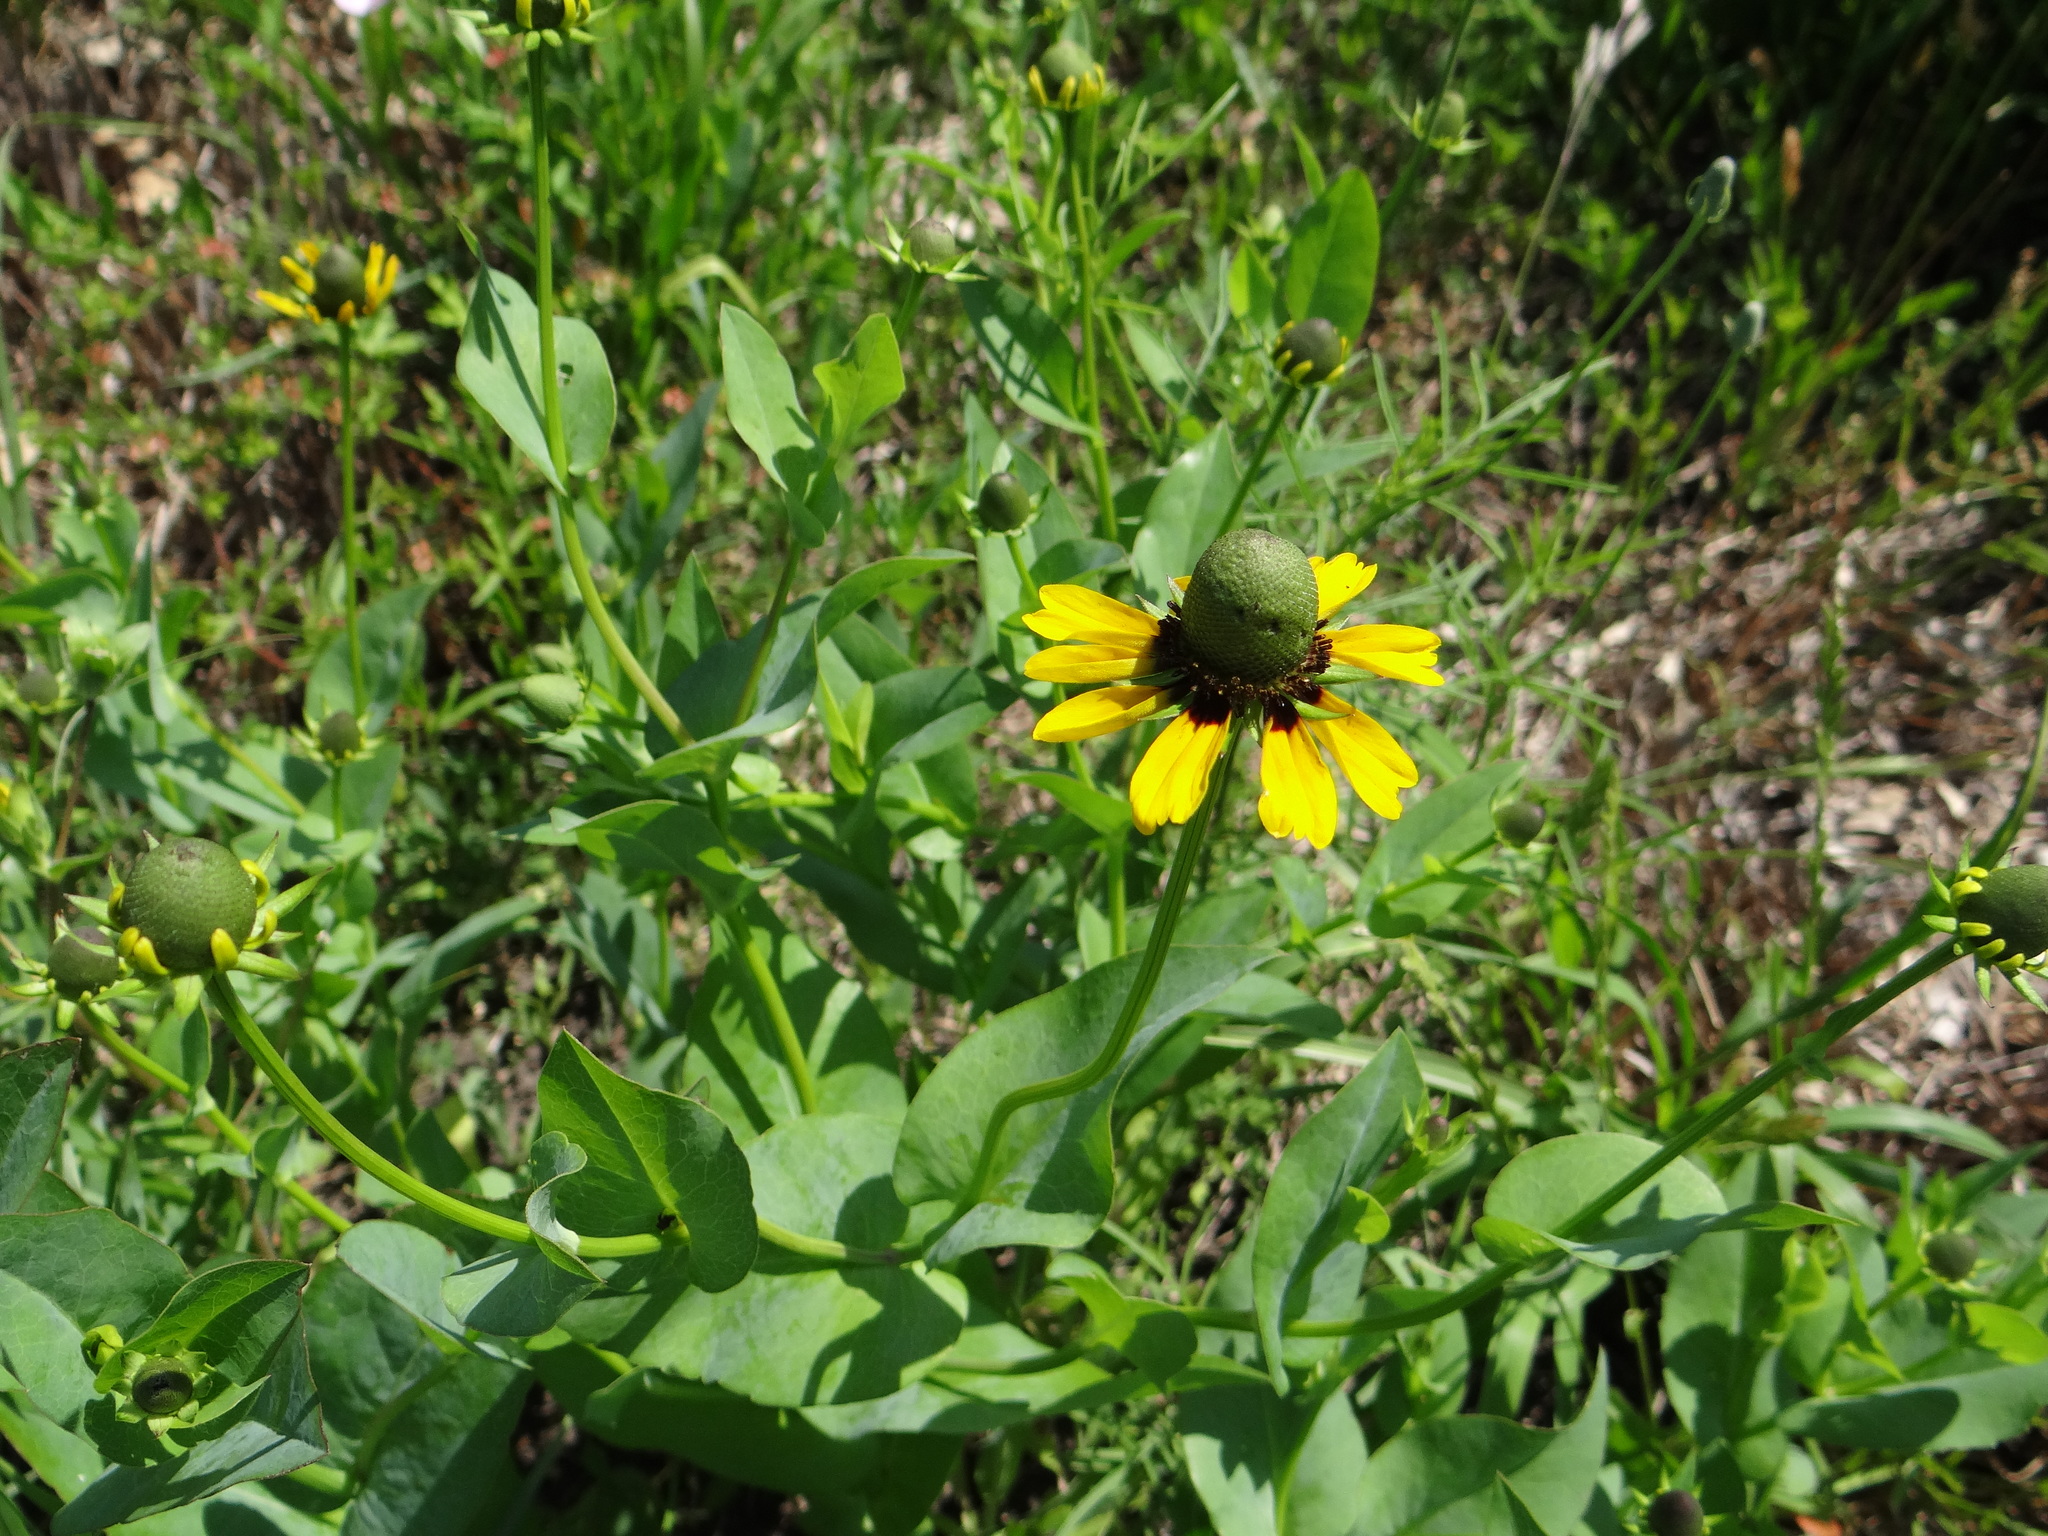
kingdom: Plantae
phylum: Tracheophyta
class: Magnoliopsida
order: Asterales
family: Asteraceae
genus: Rudbeckia
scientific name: Rudbeckia amplexicaulis
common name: Clasping-leaf coneflower
